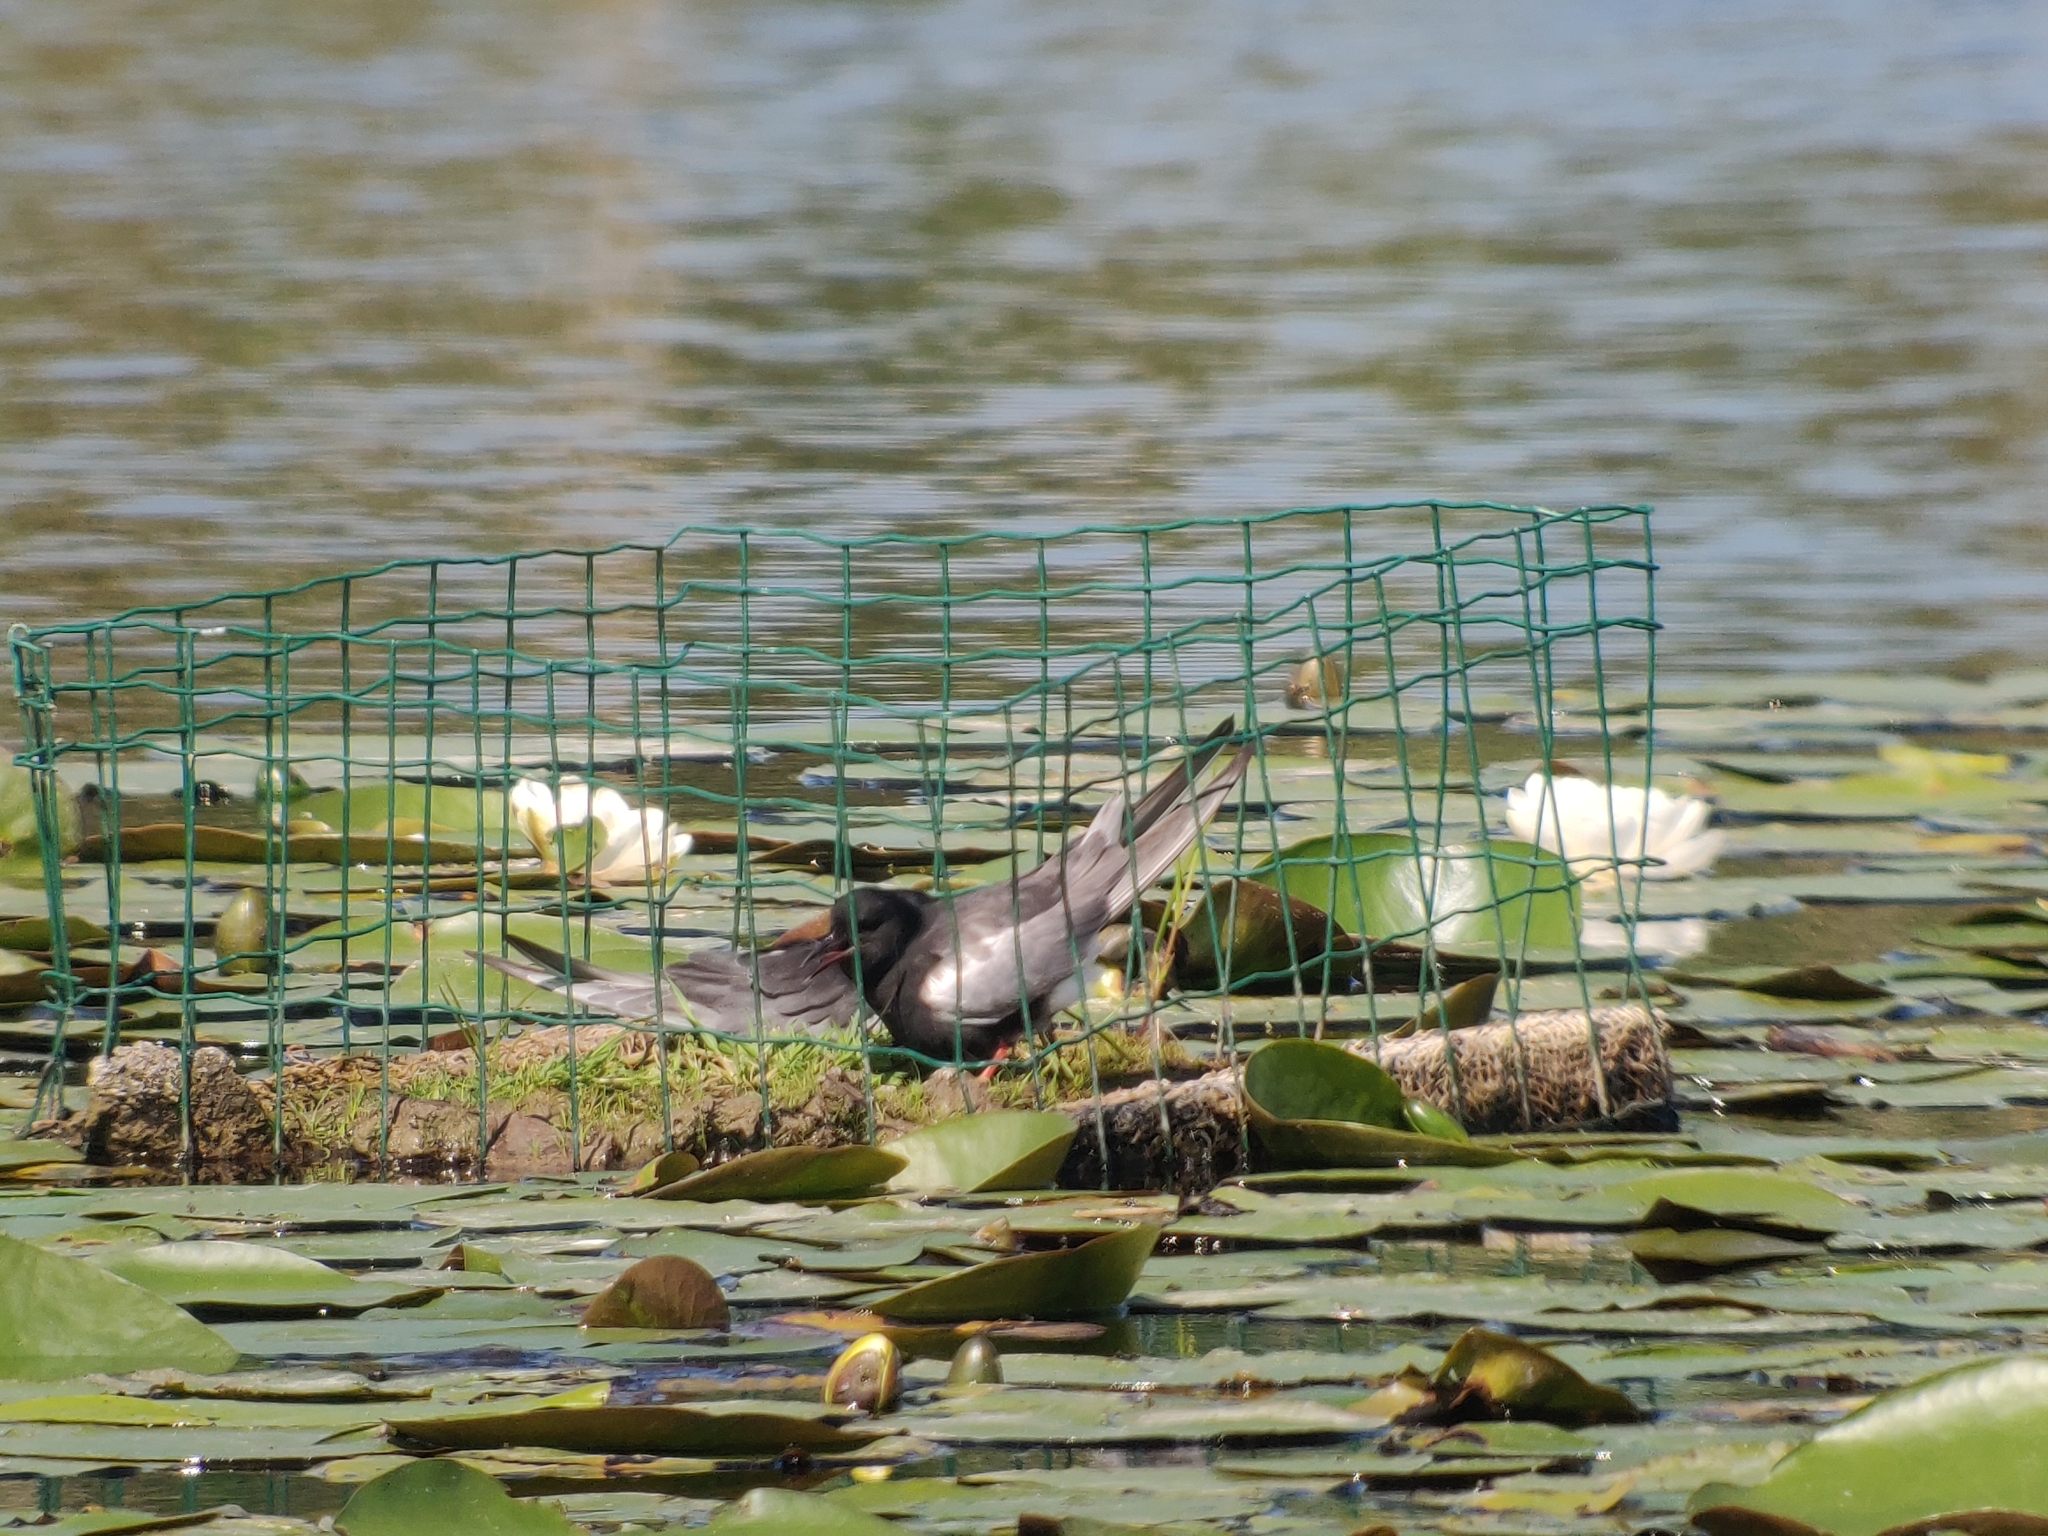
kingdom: Animalia
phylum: Chordata
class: Aves
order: Charadriiformes
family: Laridae
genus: Chlidonias
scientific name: Chlidonias leucopterus
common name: White-winged tern
